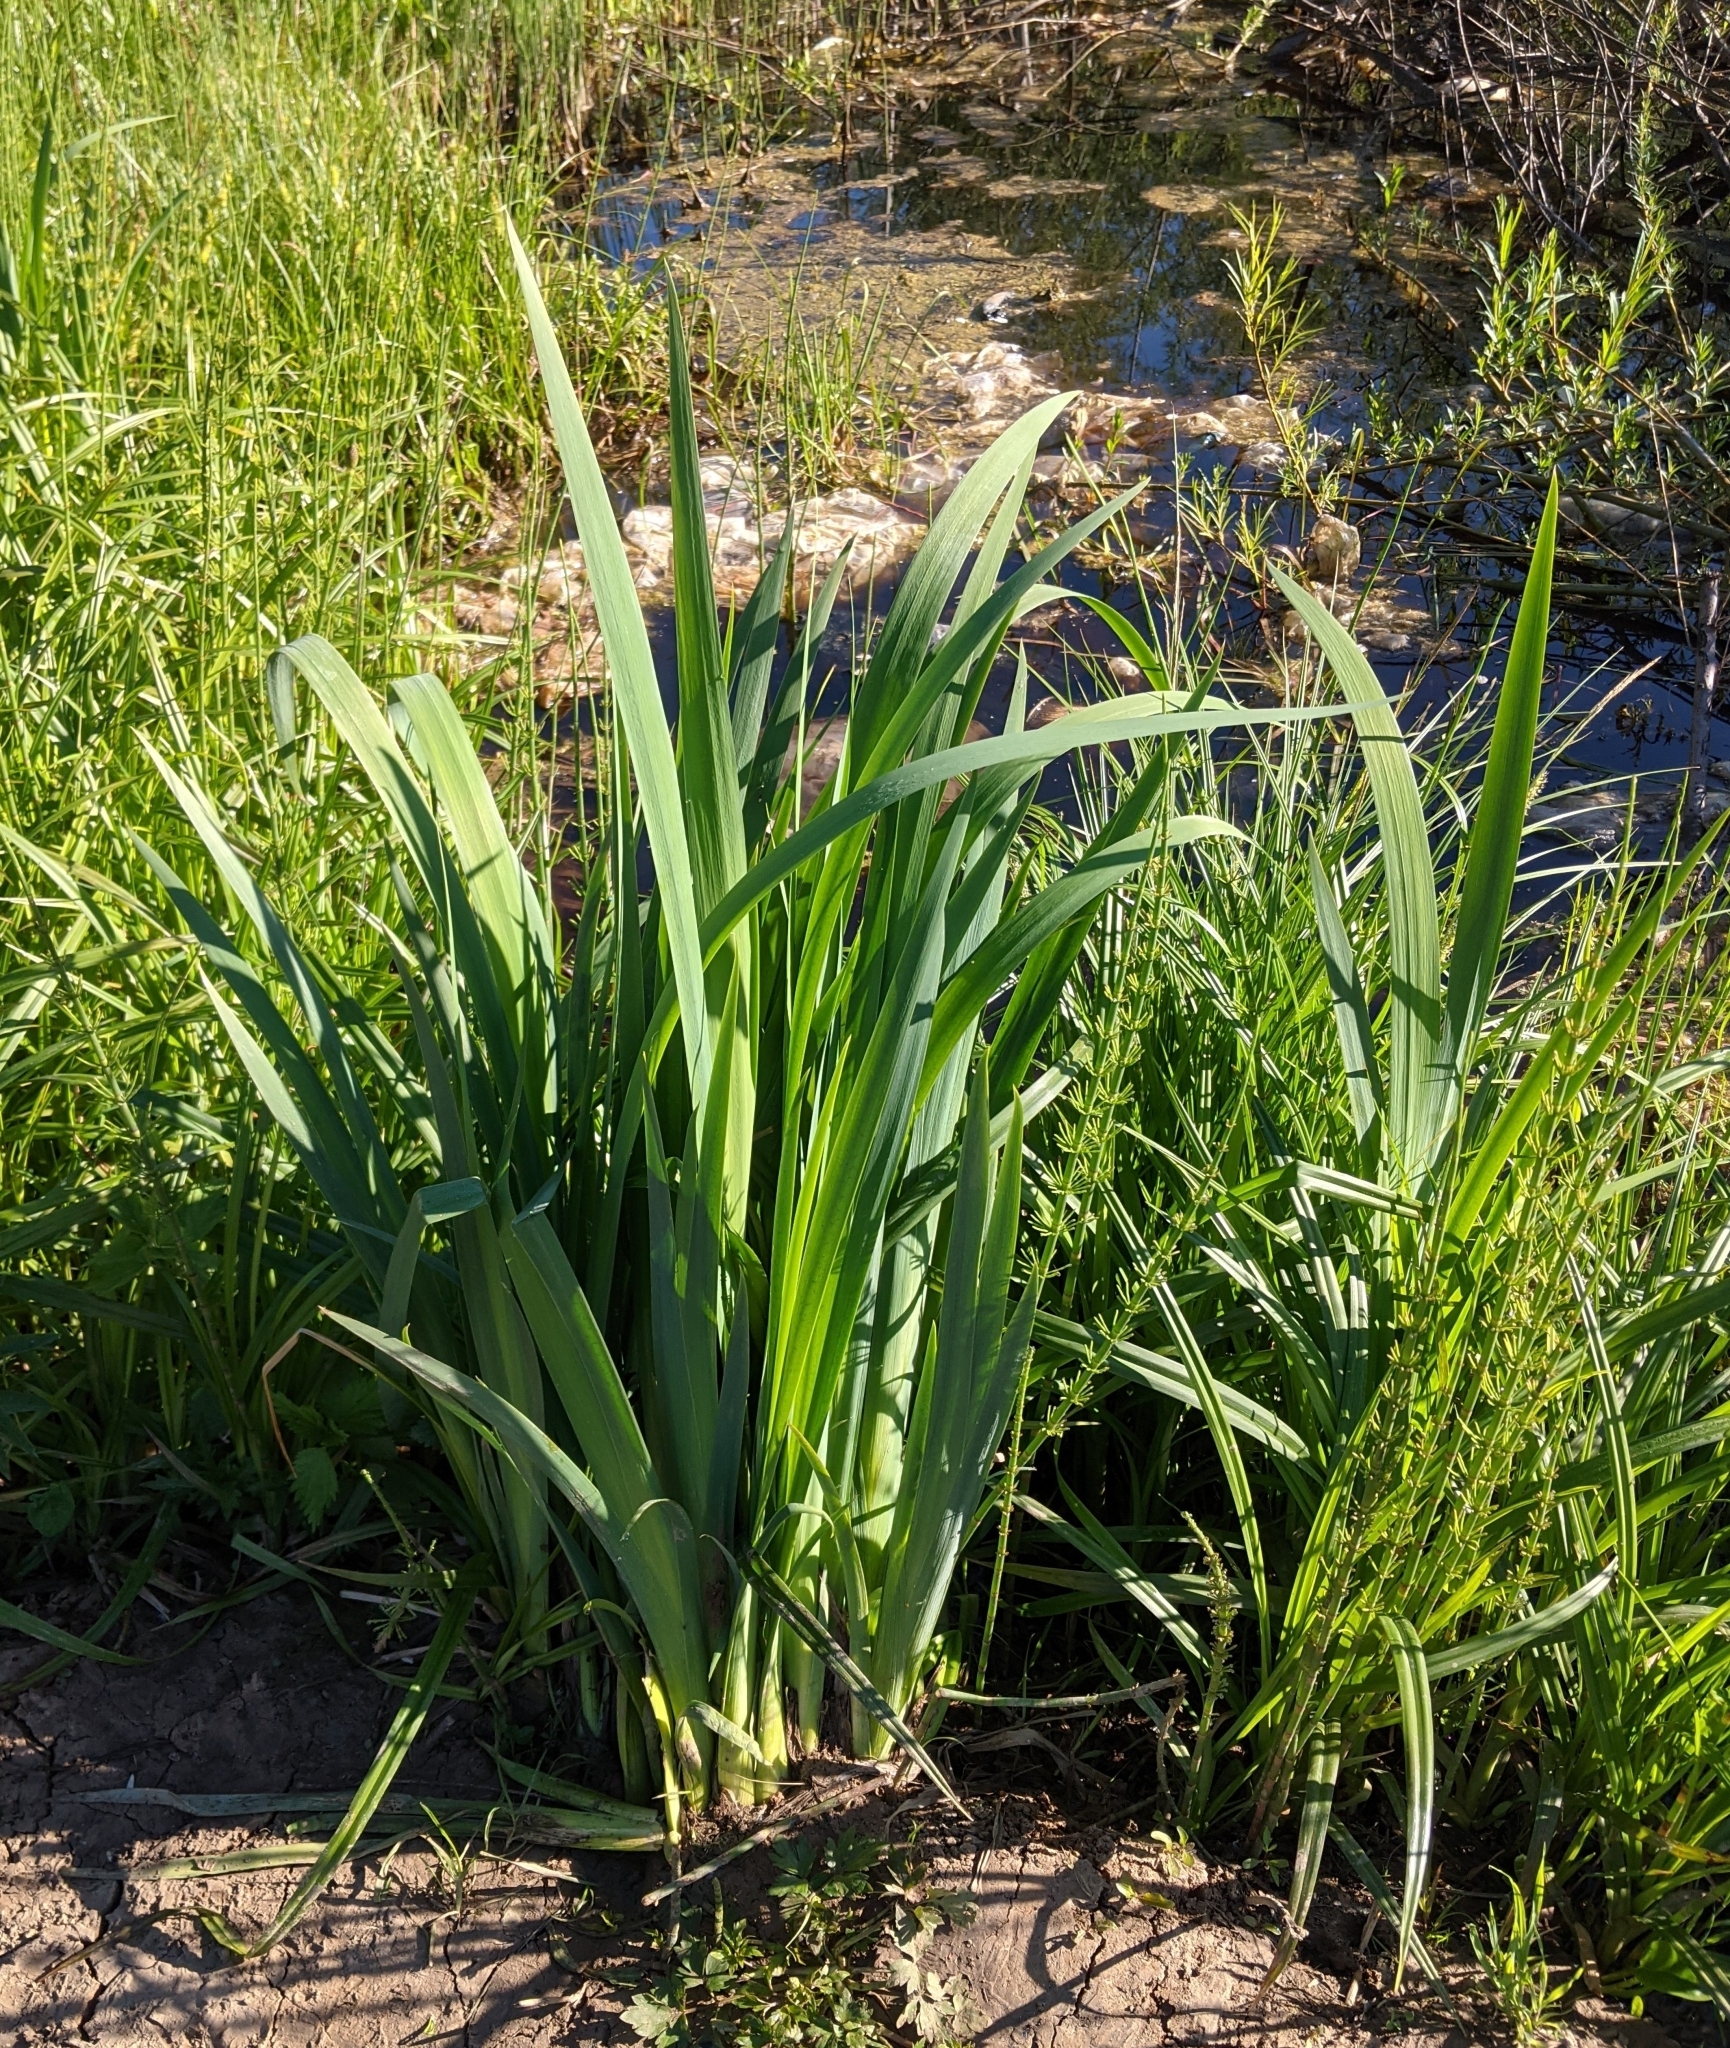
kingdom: Plantae
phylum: Tracheophyta
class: Liliopsida
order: Asparagales
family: Iridaceae
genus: Iris
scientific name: Iris pseudacorus
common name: Yellow flag
